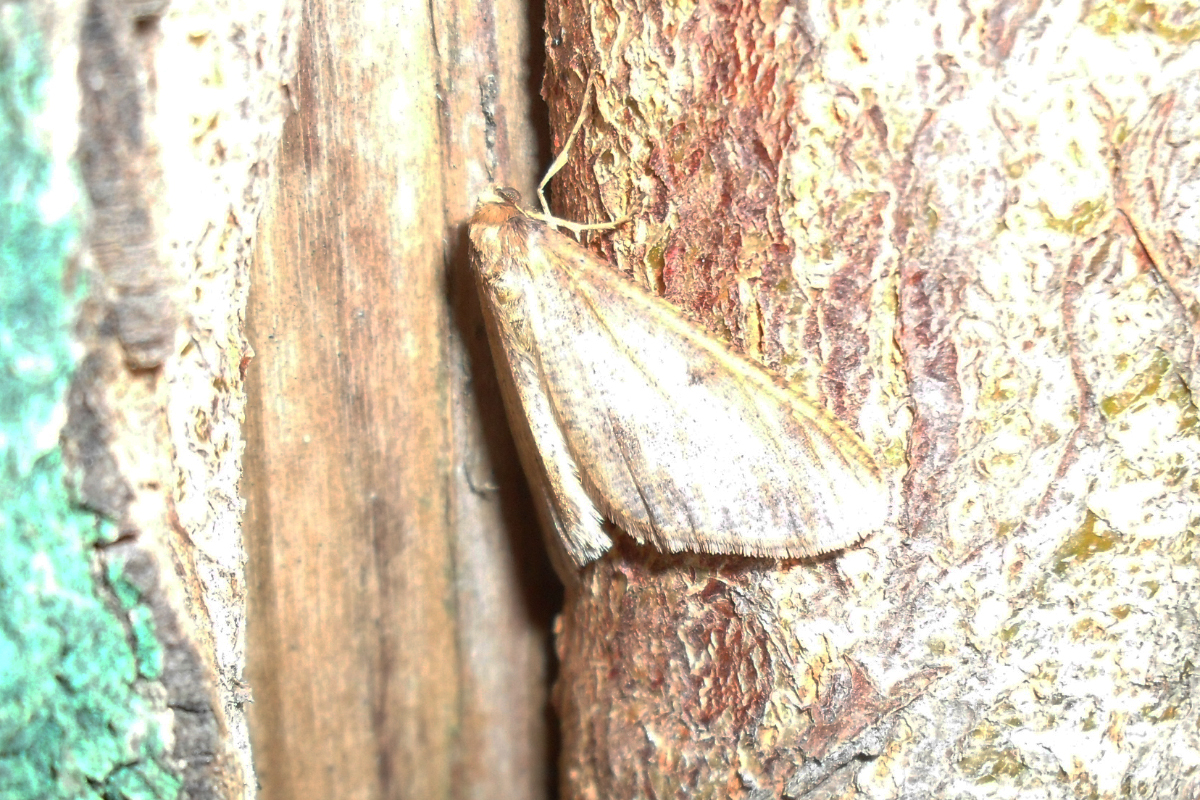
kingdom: Animalia
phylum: Arthropoda
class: Insecta
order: Lepidoptera
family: Geometridae
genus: Erannis
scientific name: Erannis defoliaria
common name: Mottled umber
